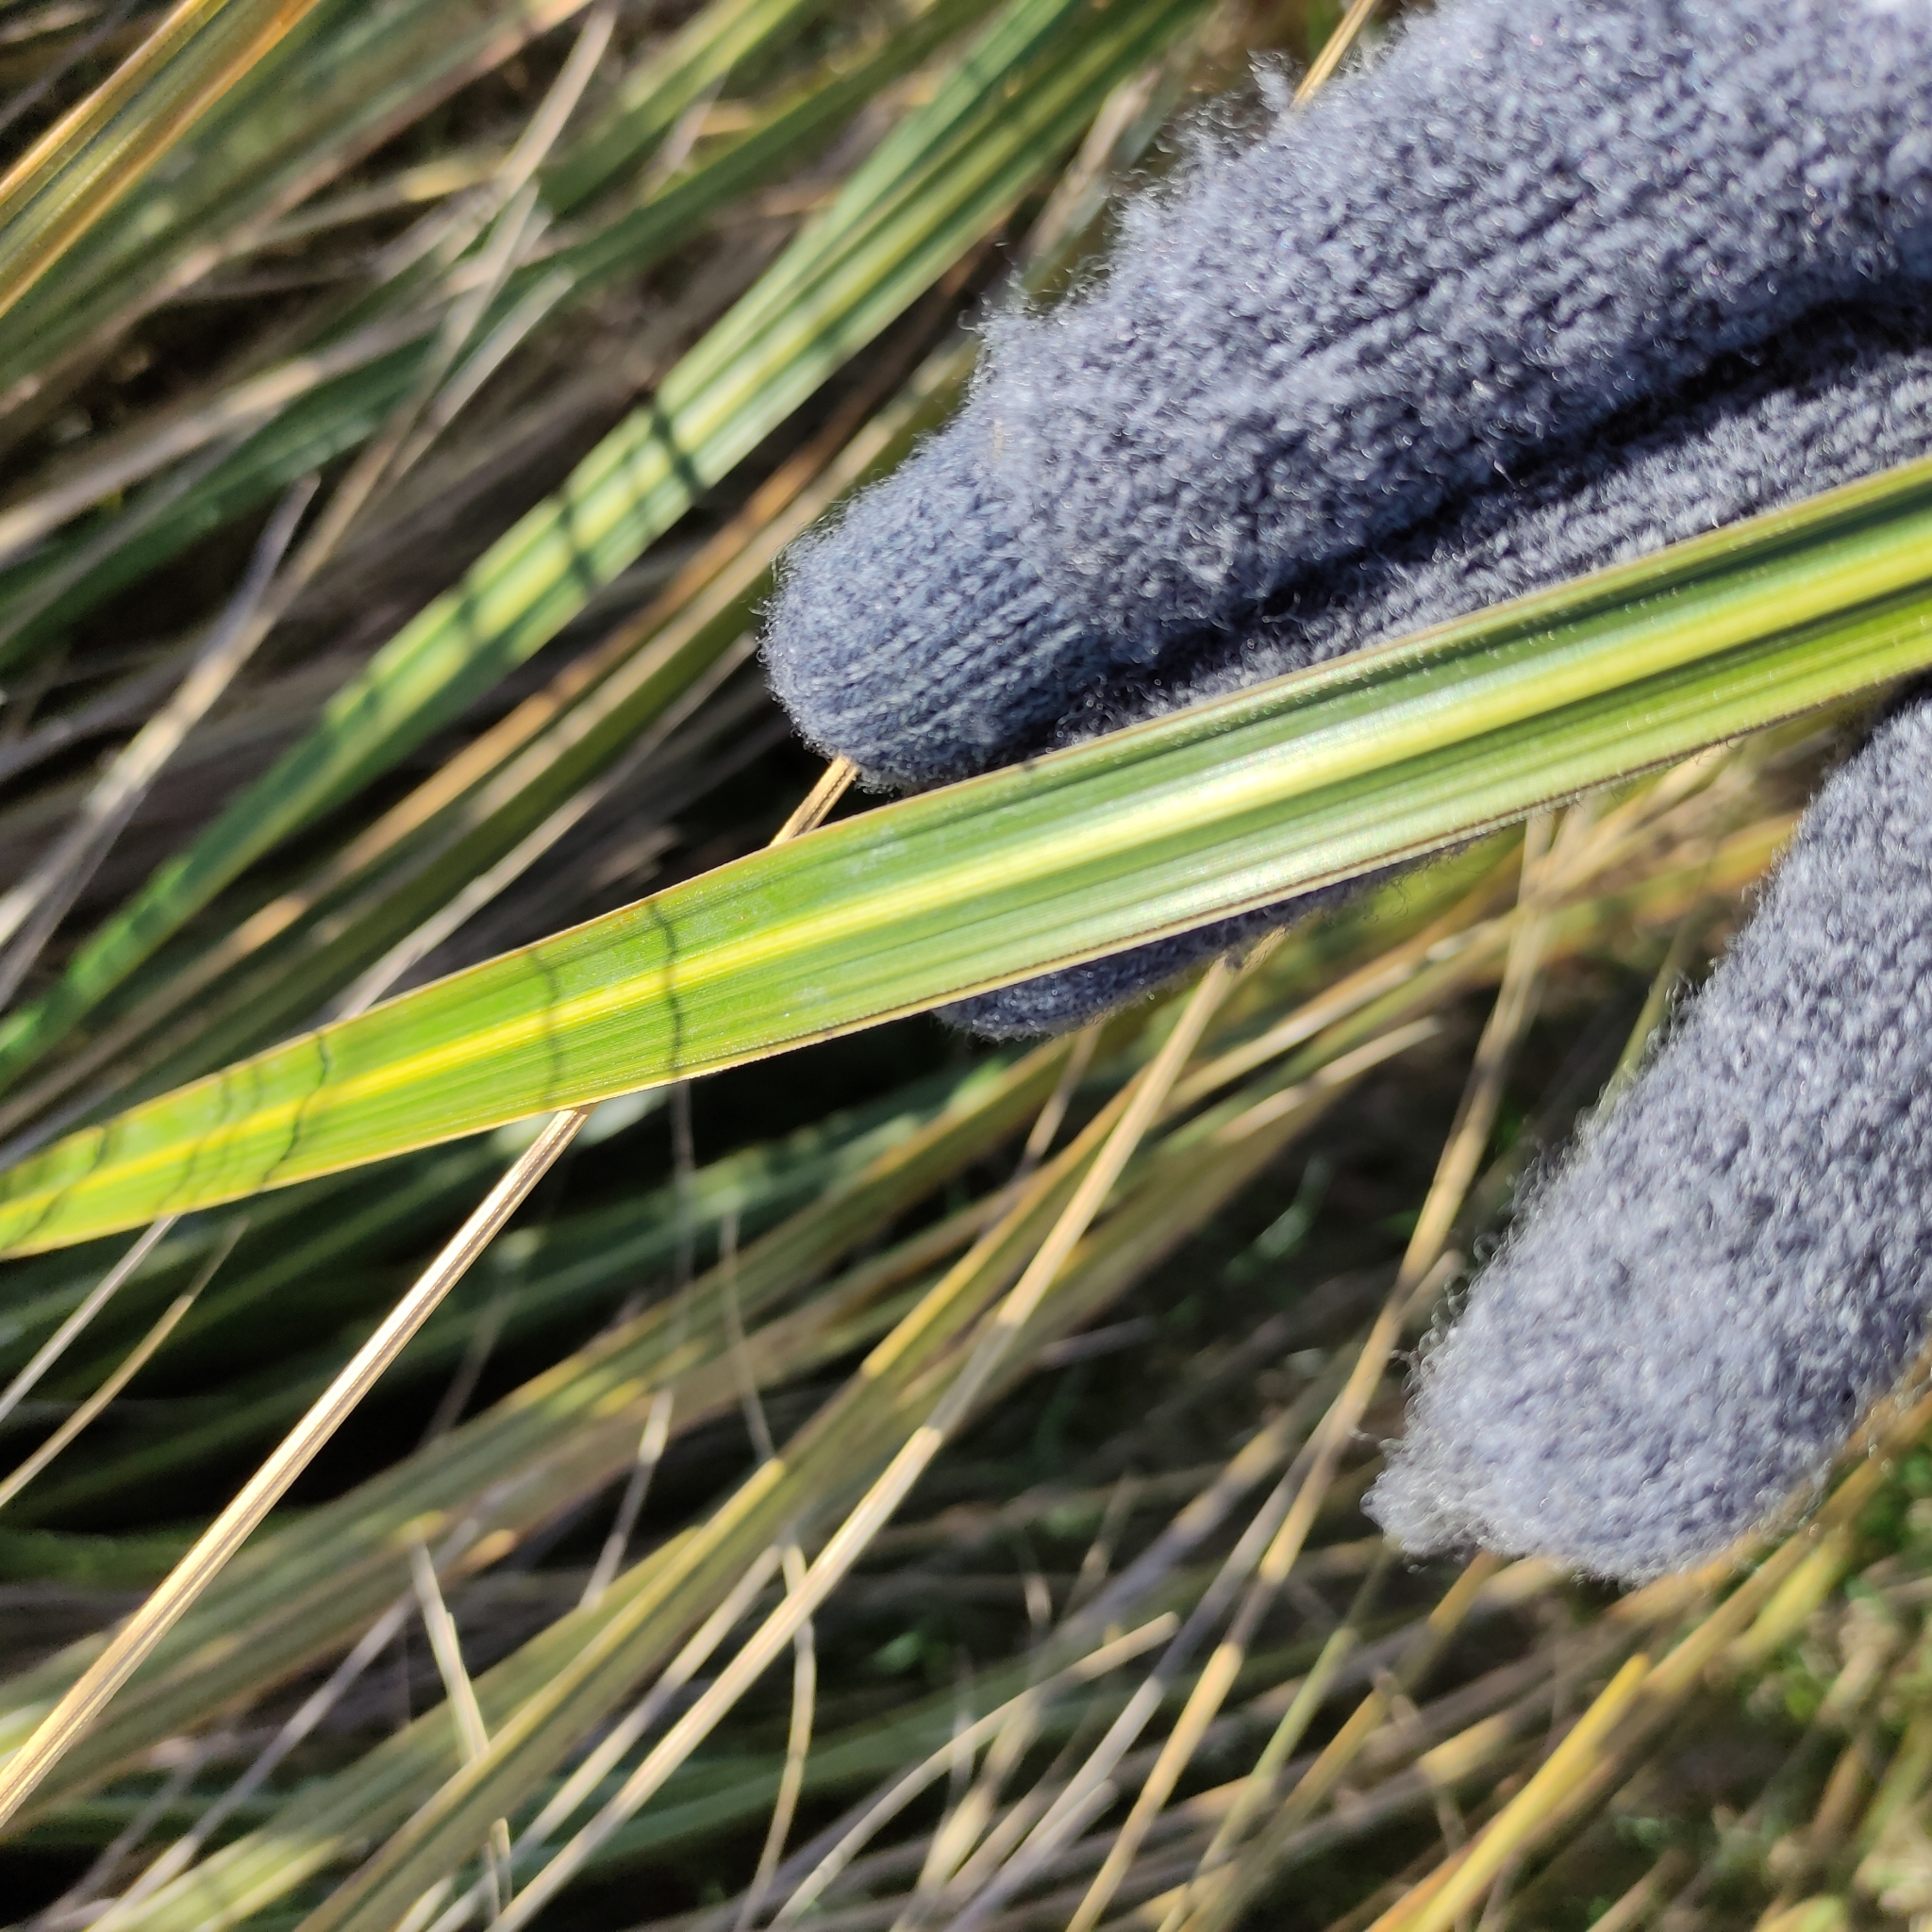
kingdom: Plantae
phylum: Tracheophyta
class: Liliopsida
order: Poales
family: Poaceae
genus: Austroderia
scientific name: Austroderia richardii
